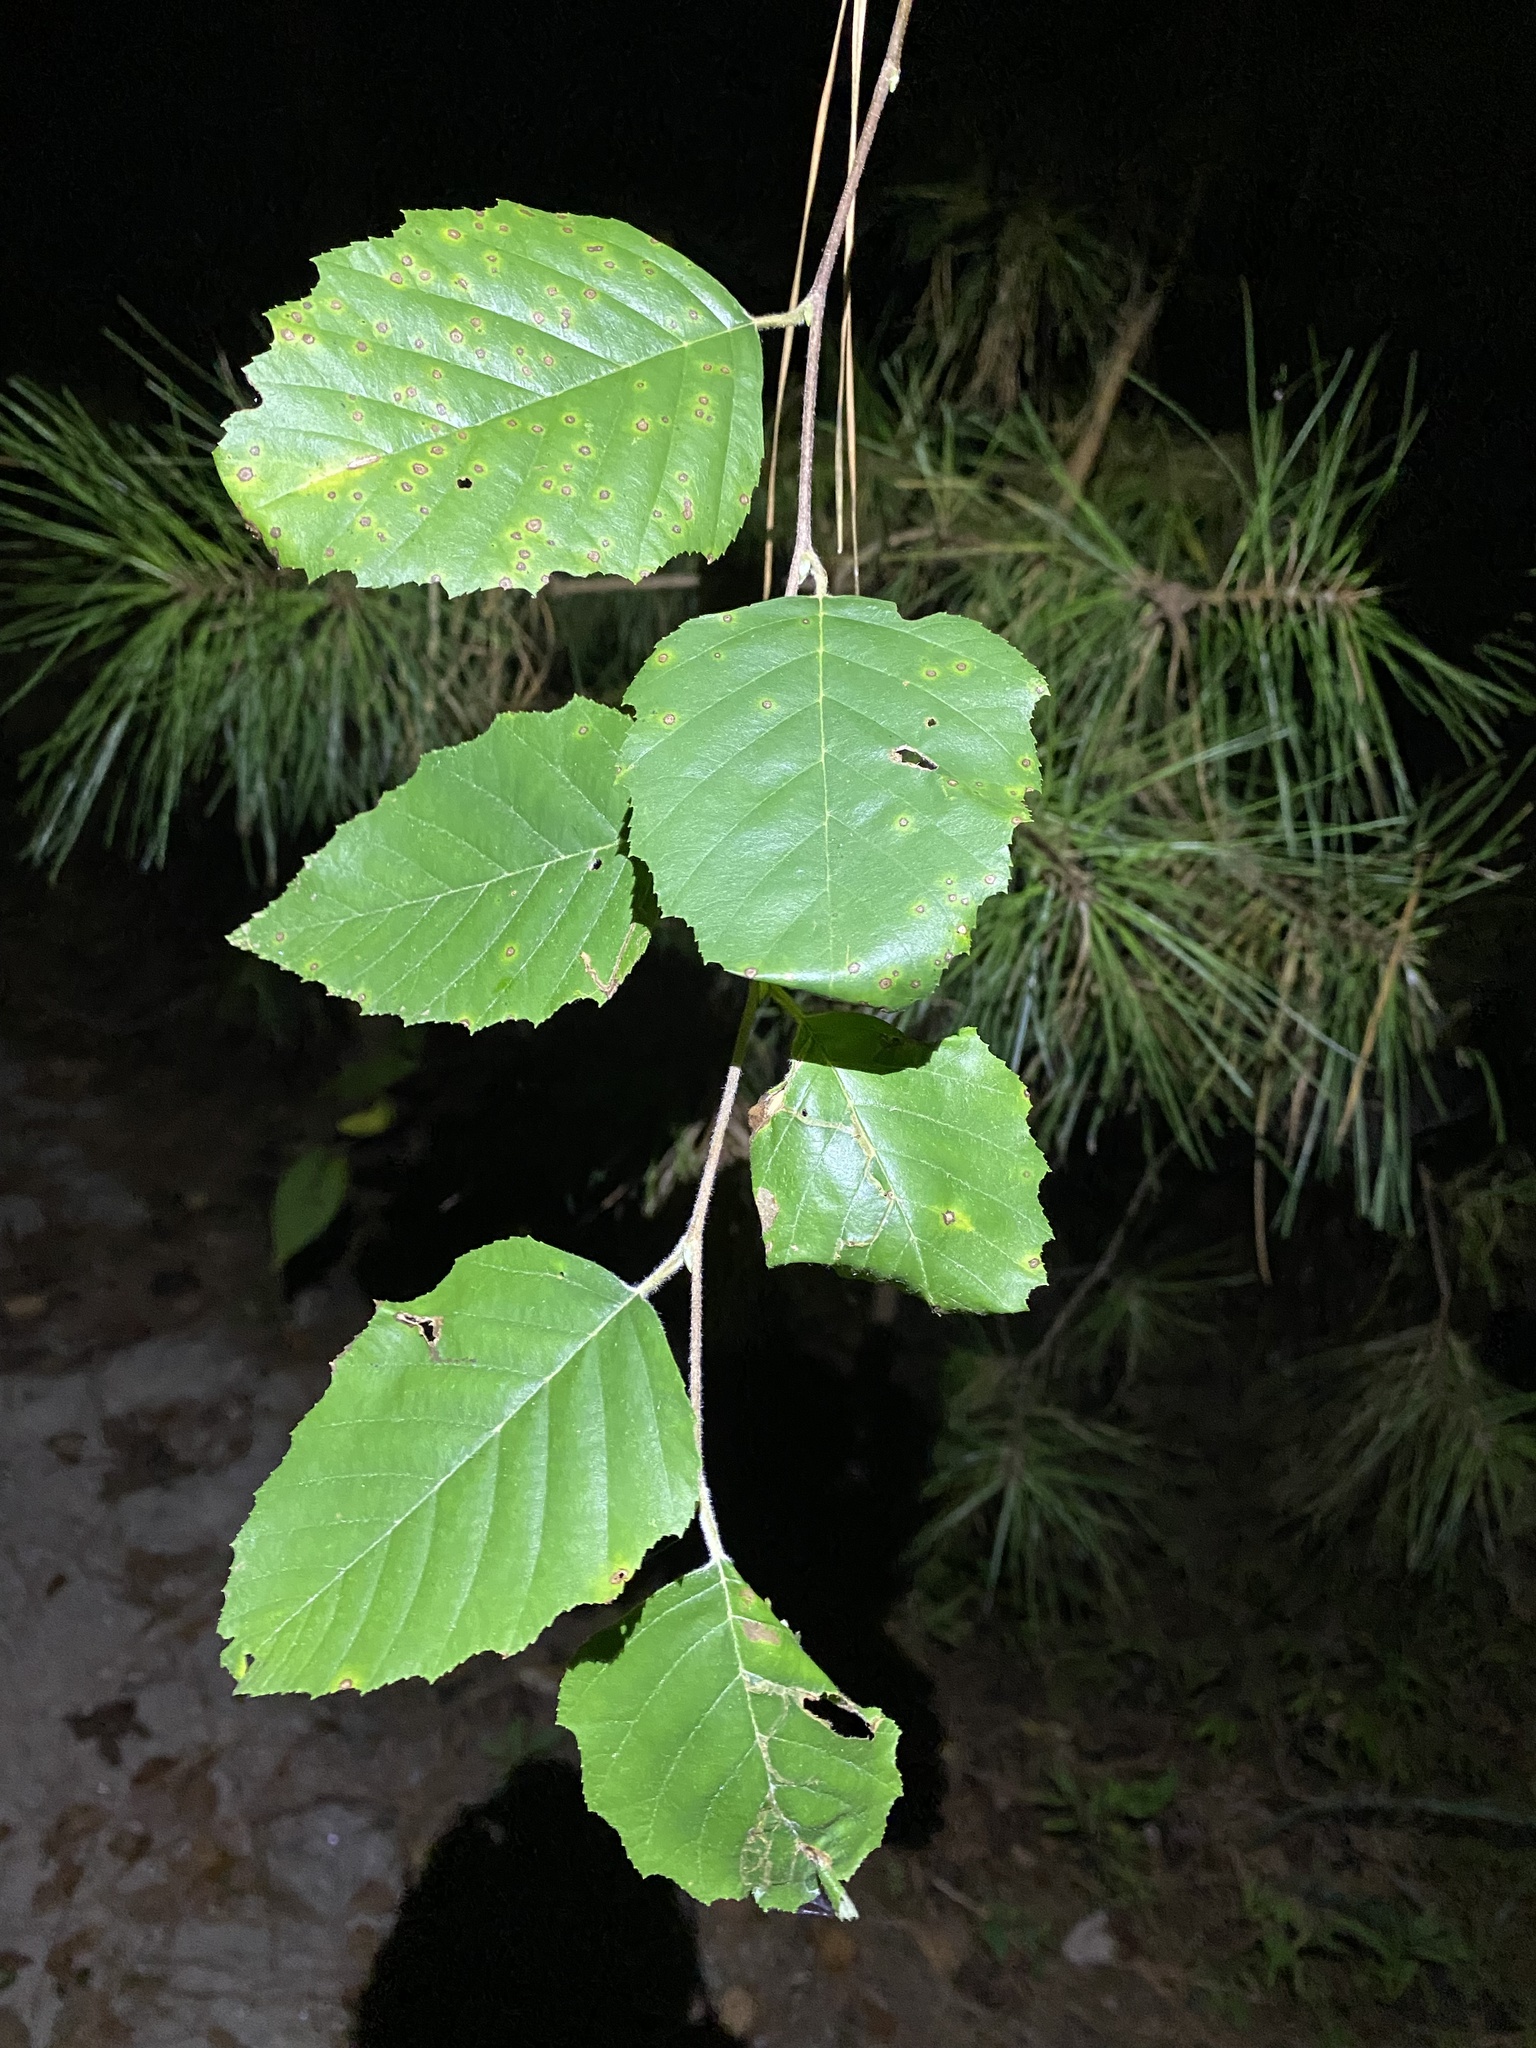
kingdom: Plantae
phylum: Tracheophyta
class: Magnoliopsida
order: Fagales
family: Betulaceae
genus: Betula
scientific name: Betula nigra
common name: Black birch
